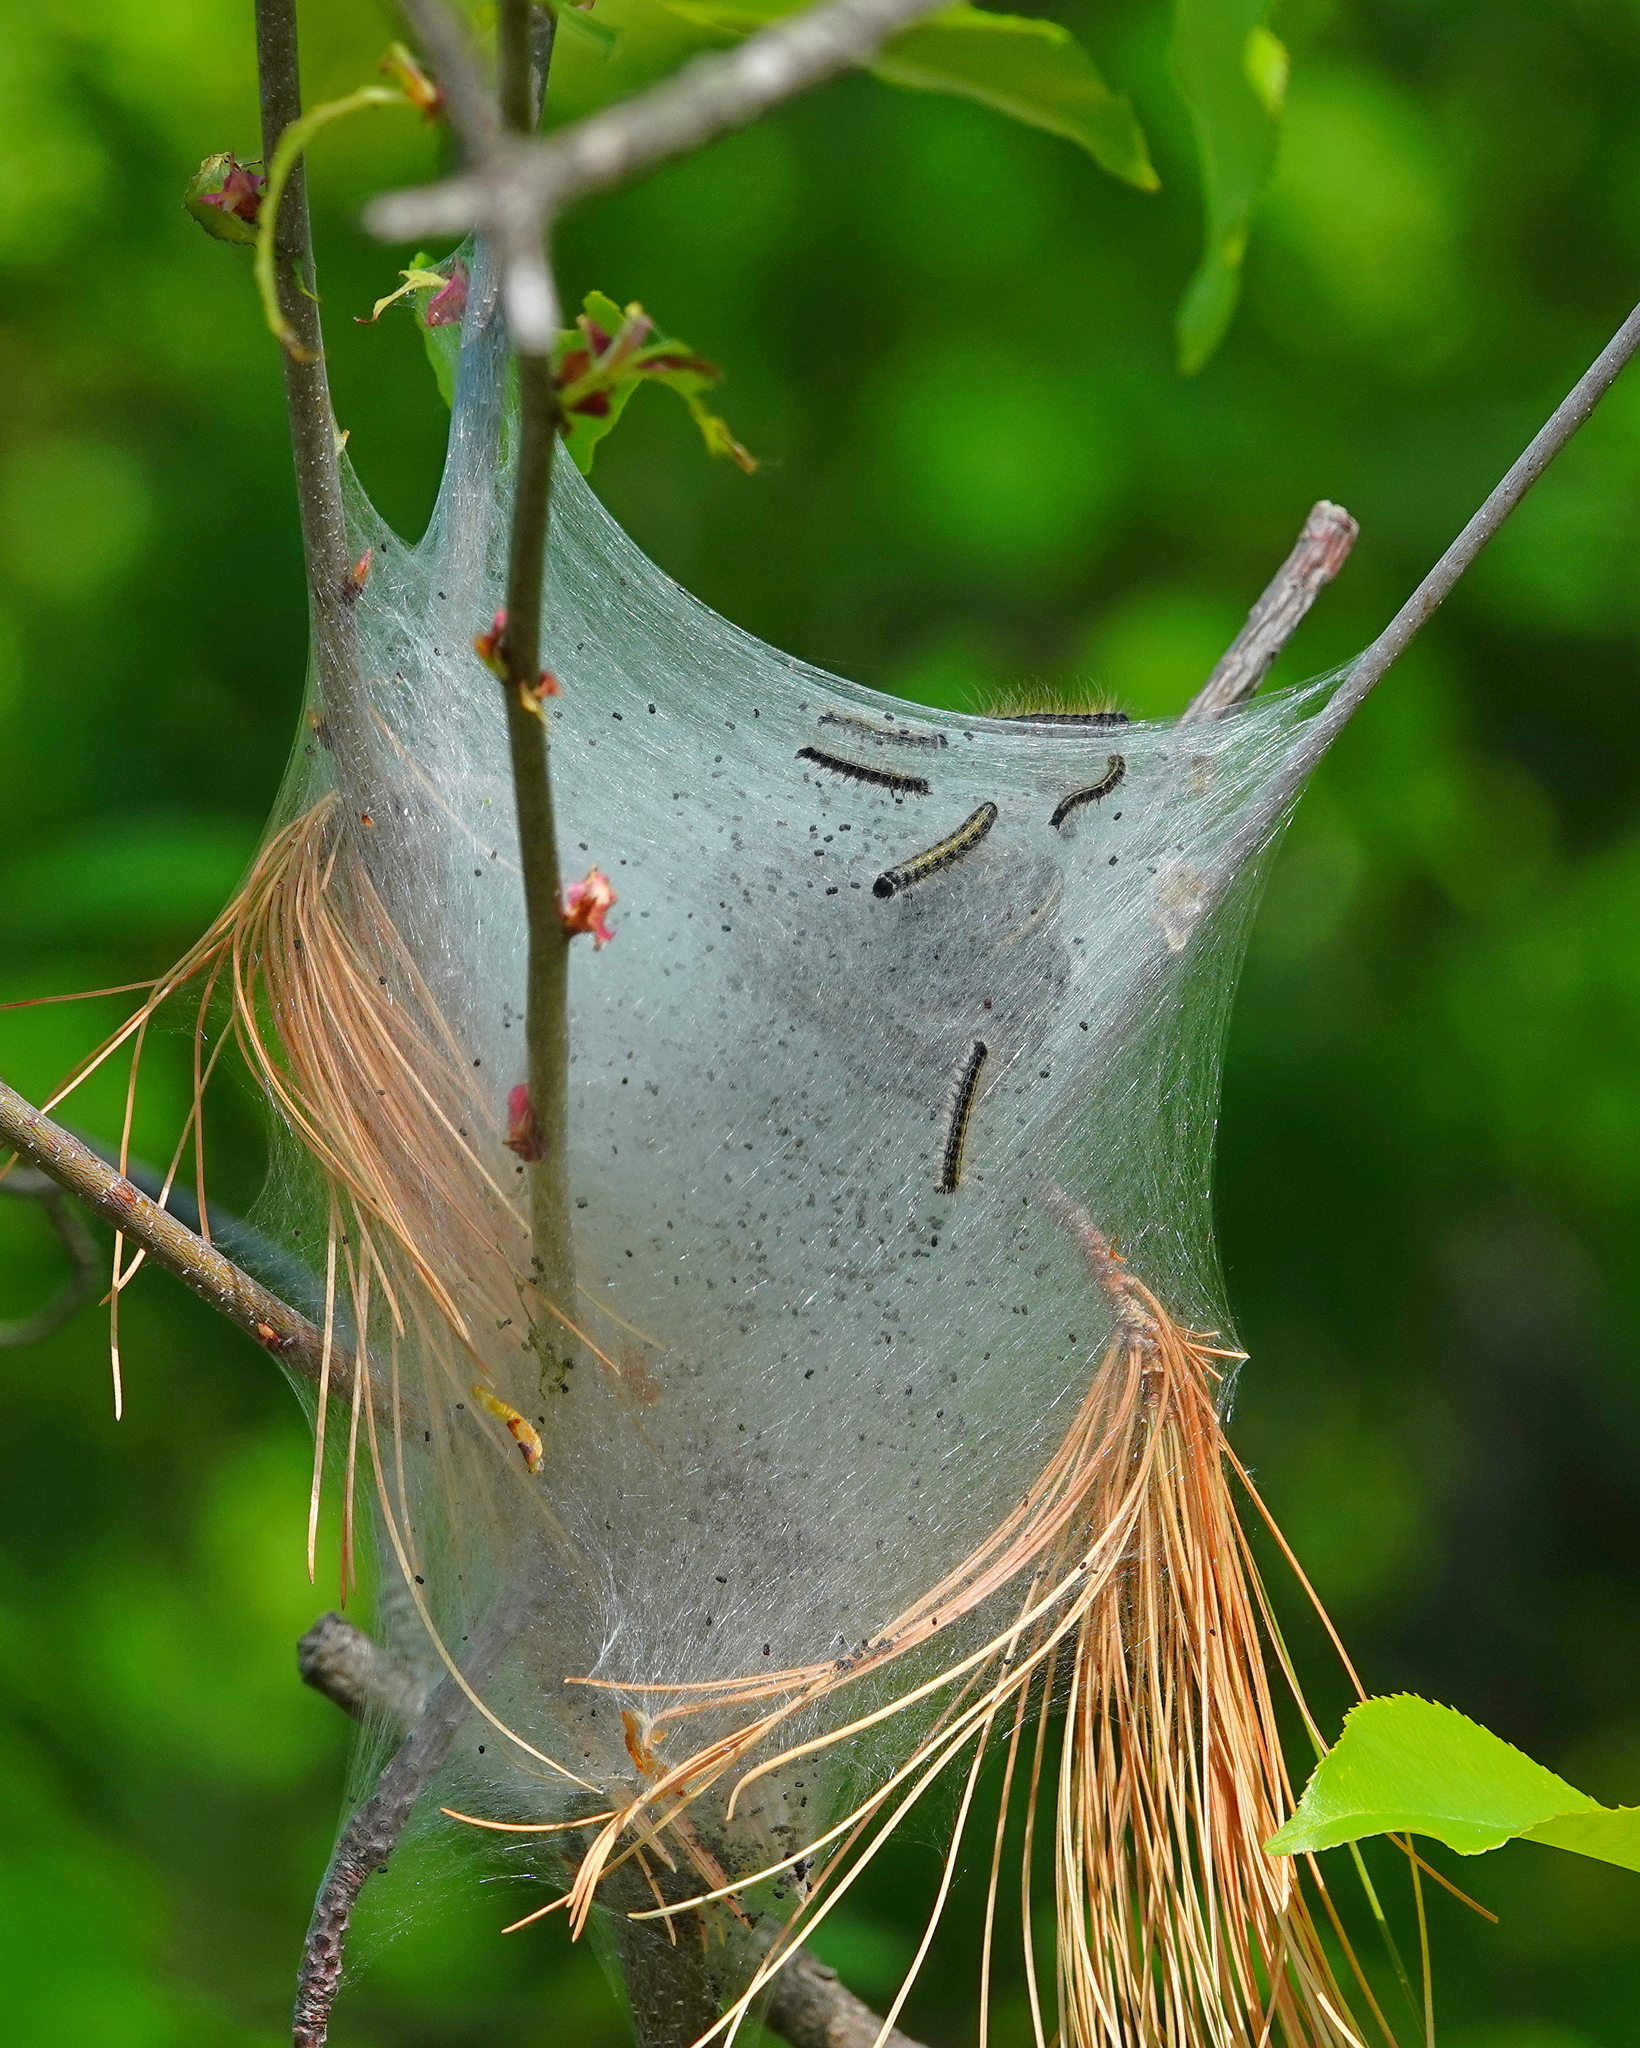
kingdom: Animalia
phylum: Arthropoda
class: Insecta
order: Lepidoptera
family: Lasiocampidae
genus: Malacosoma
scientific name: Malacosoma americana
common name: Eastern tent caterpillar moth
